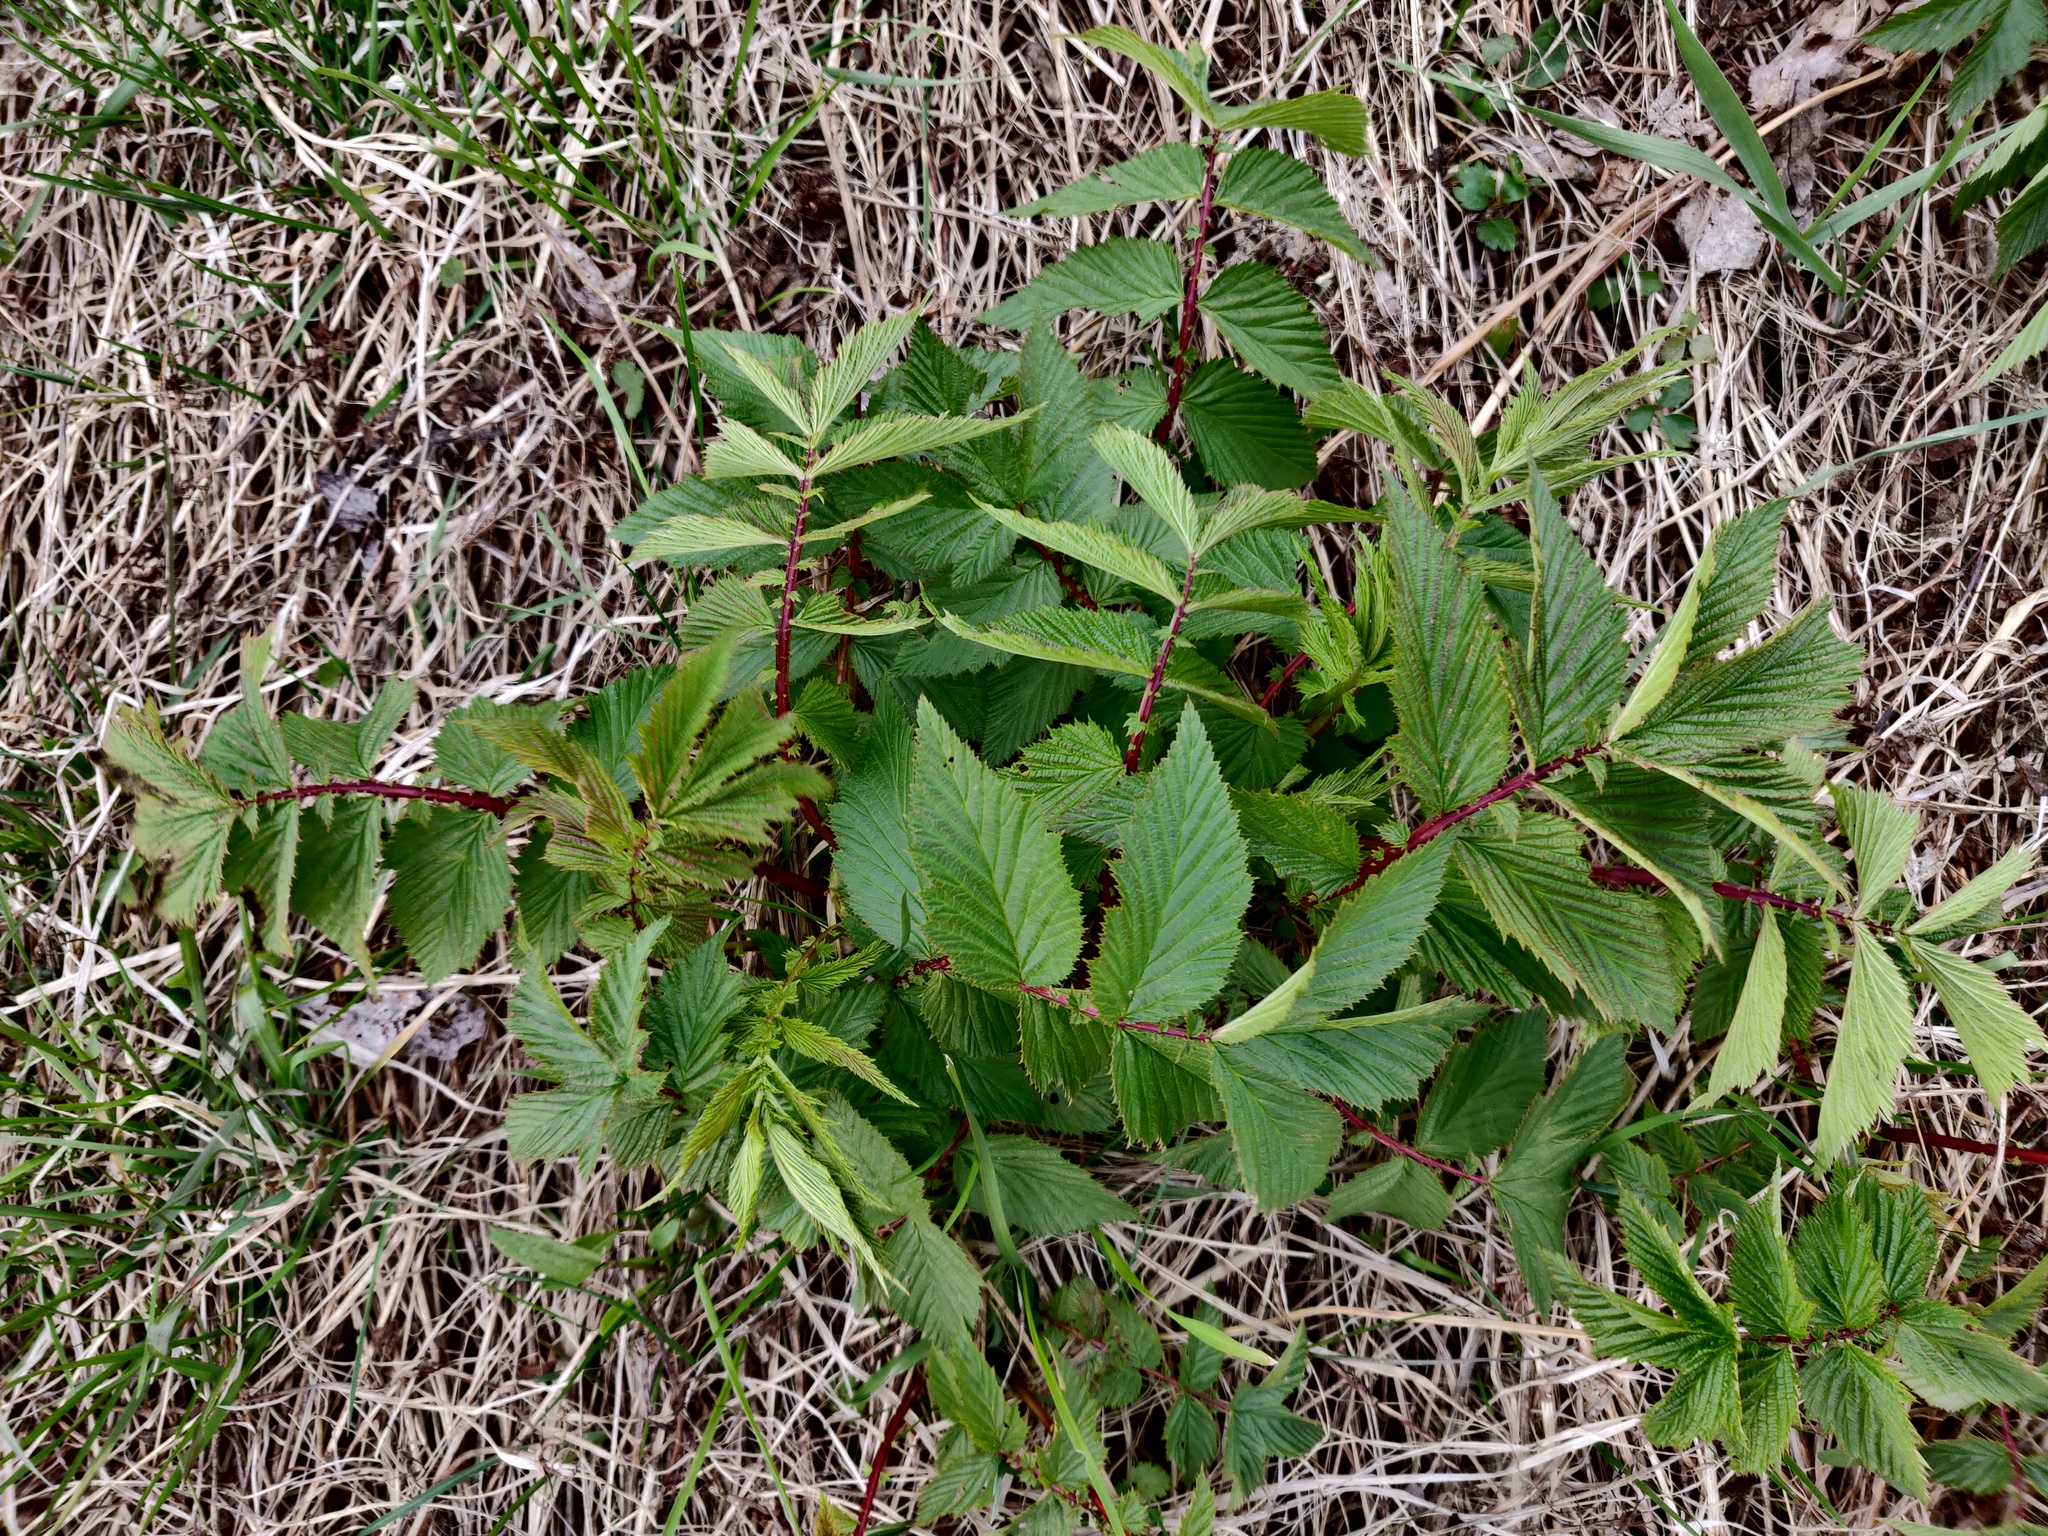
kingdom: Plantae
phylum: Tracheophyta
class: Magnoliopsida
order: Rosales
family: Rosaceae
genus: Filipendula
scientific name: Filipendula ulmaria
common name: Meadowsweet
